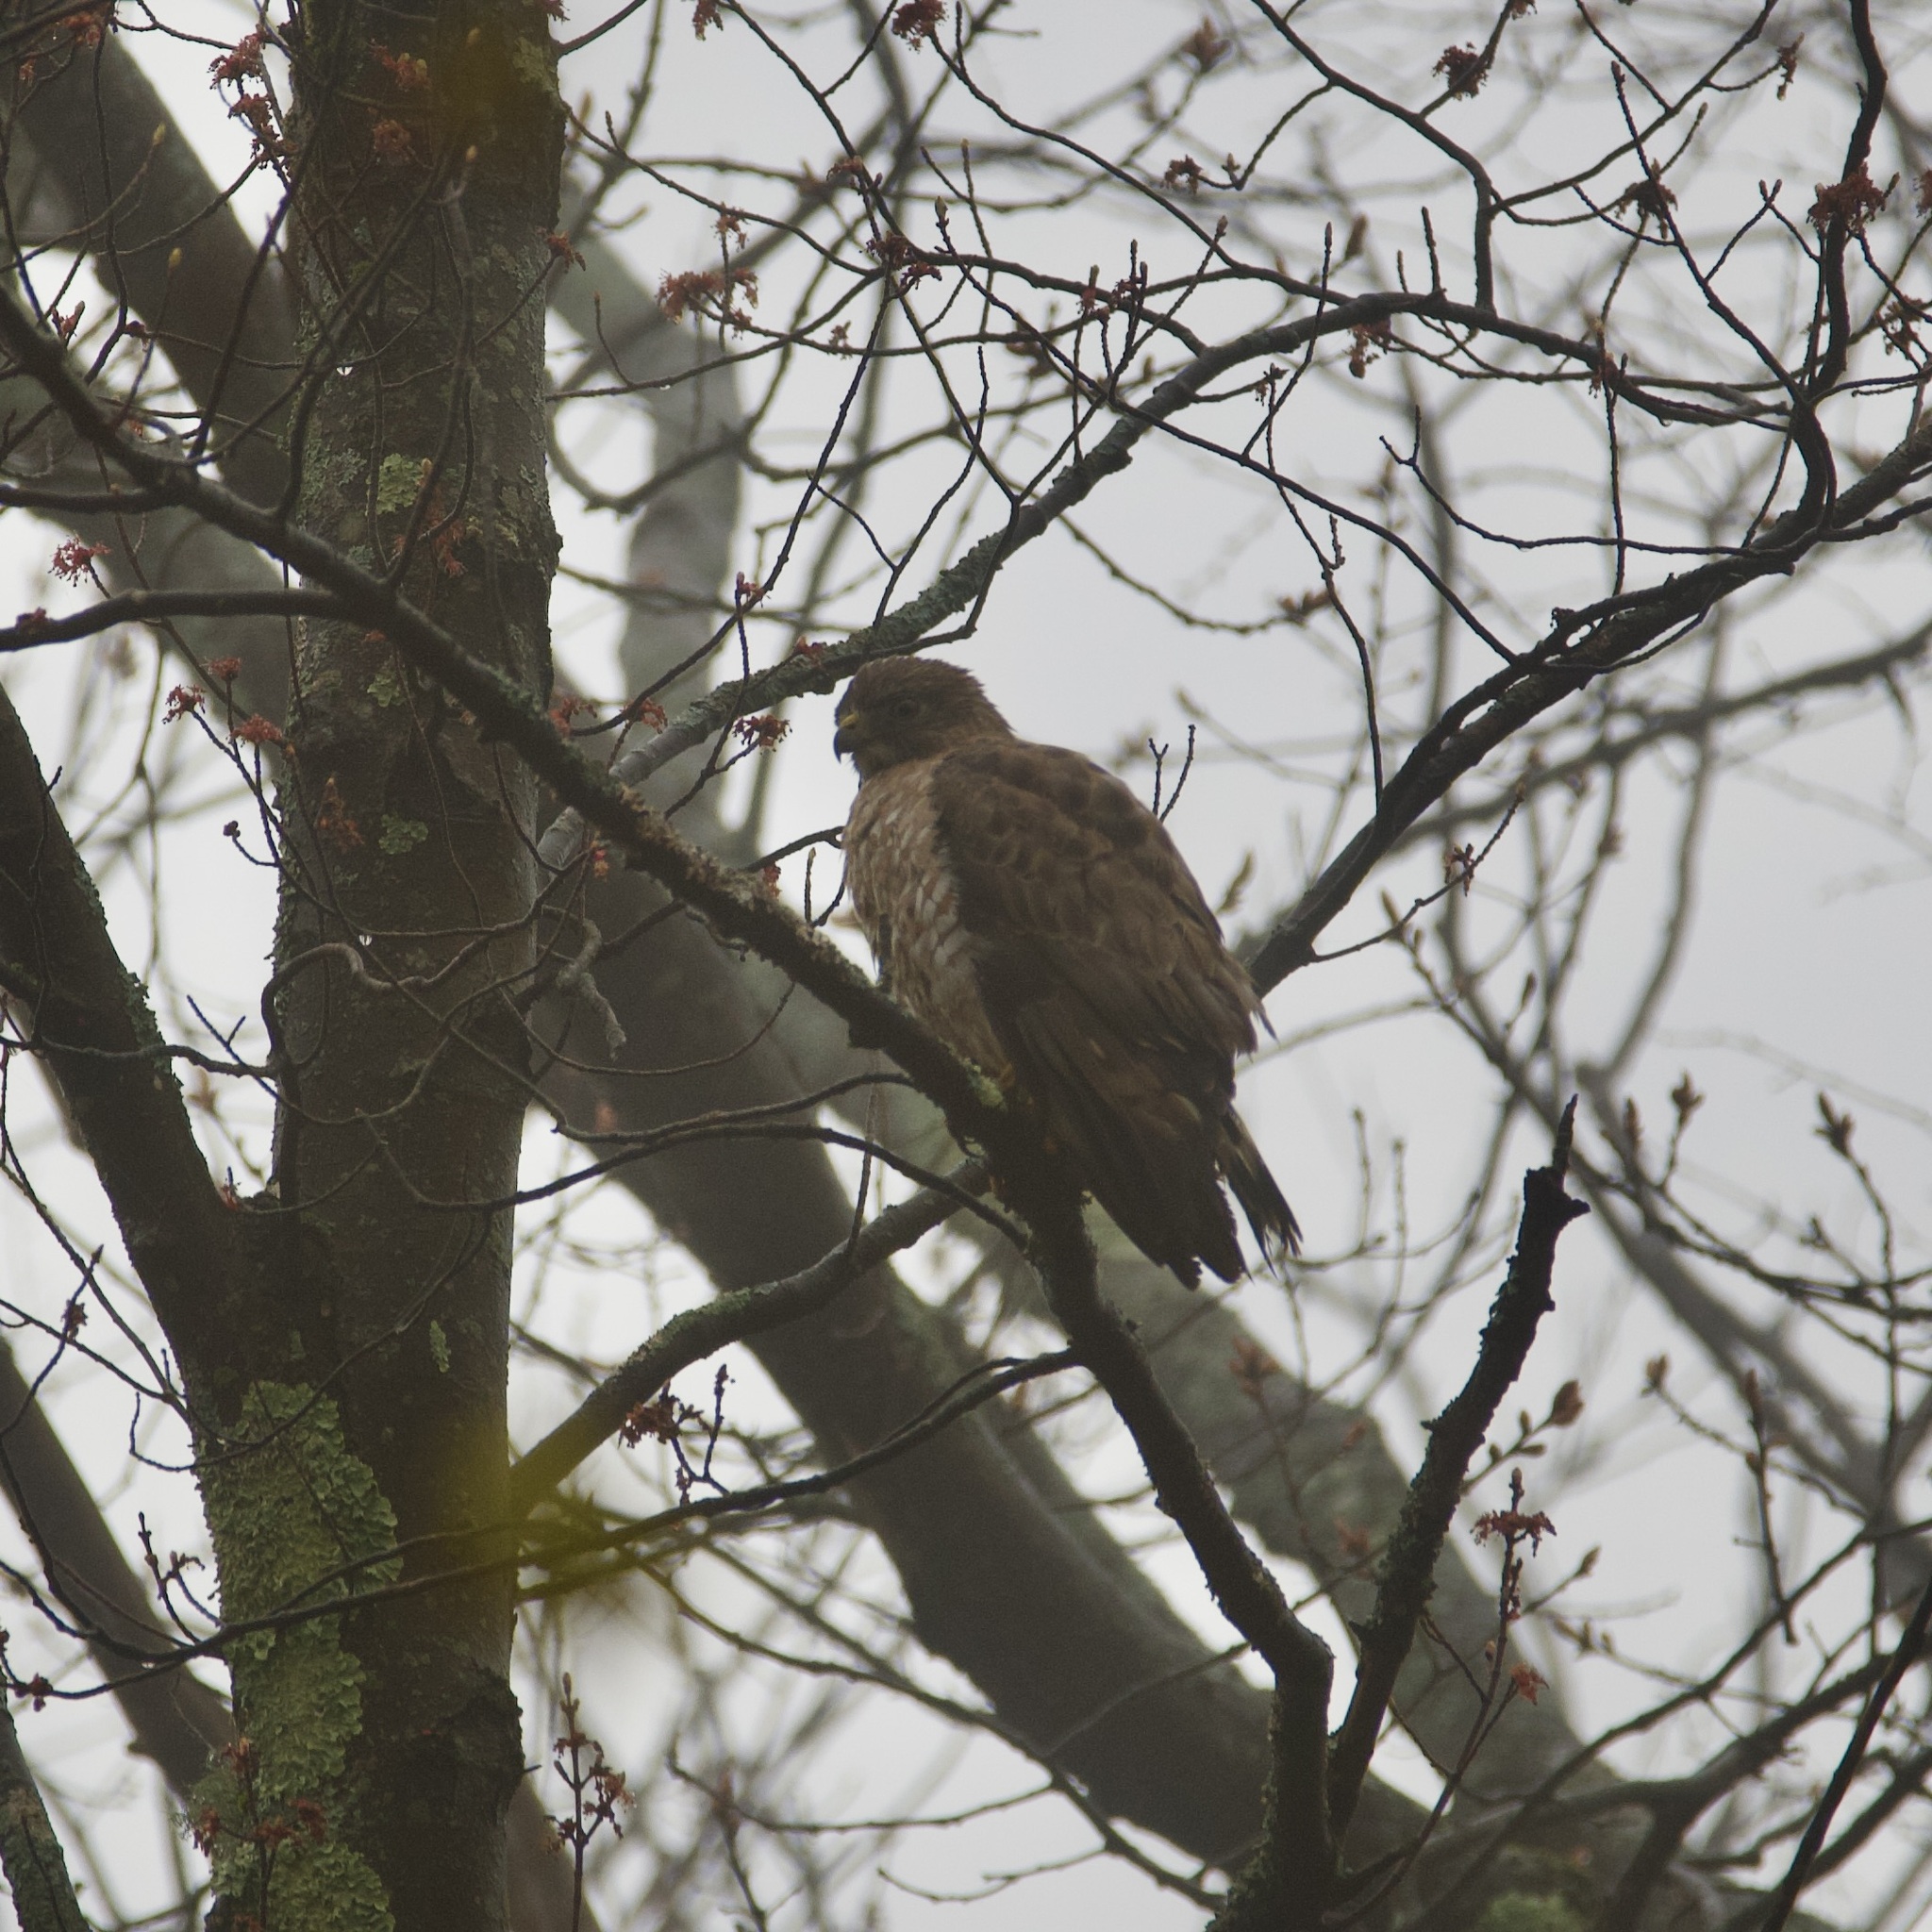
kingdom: Animalia
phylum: Chordata
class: Aves
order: Accipitriformes
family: Accipitridae
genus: Buteo
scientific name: Buteo platypterus
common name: Broad-winged hawk
